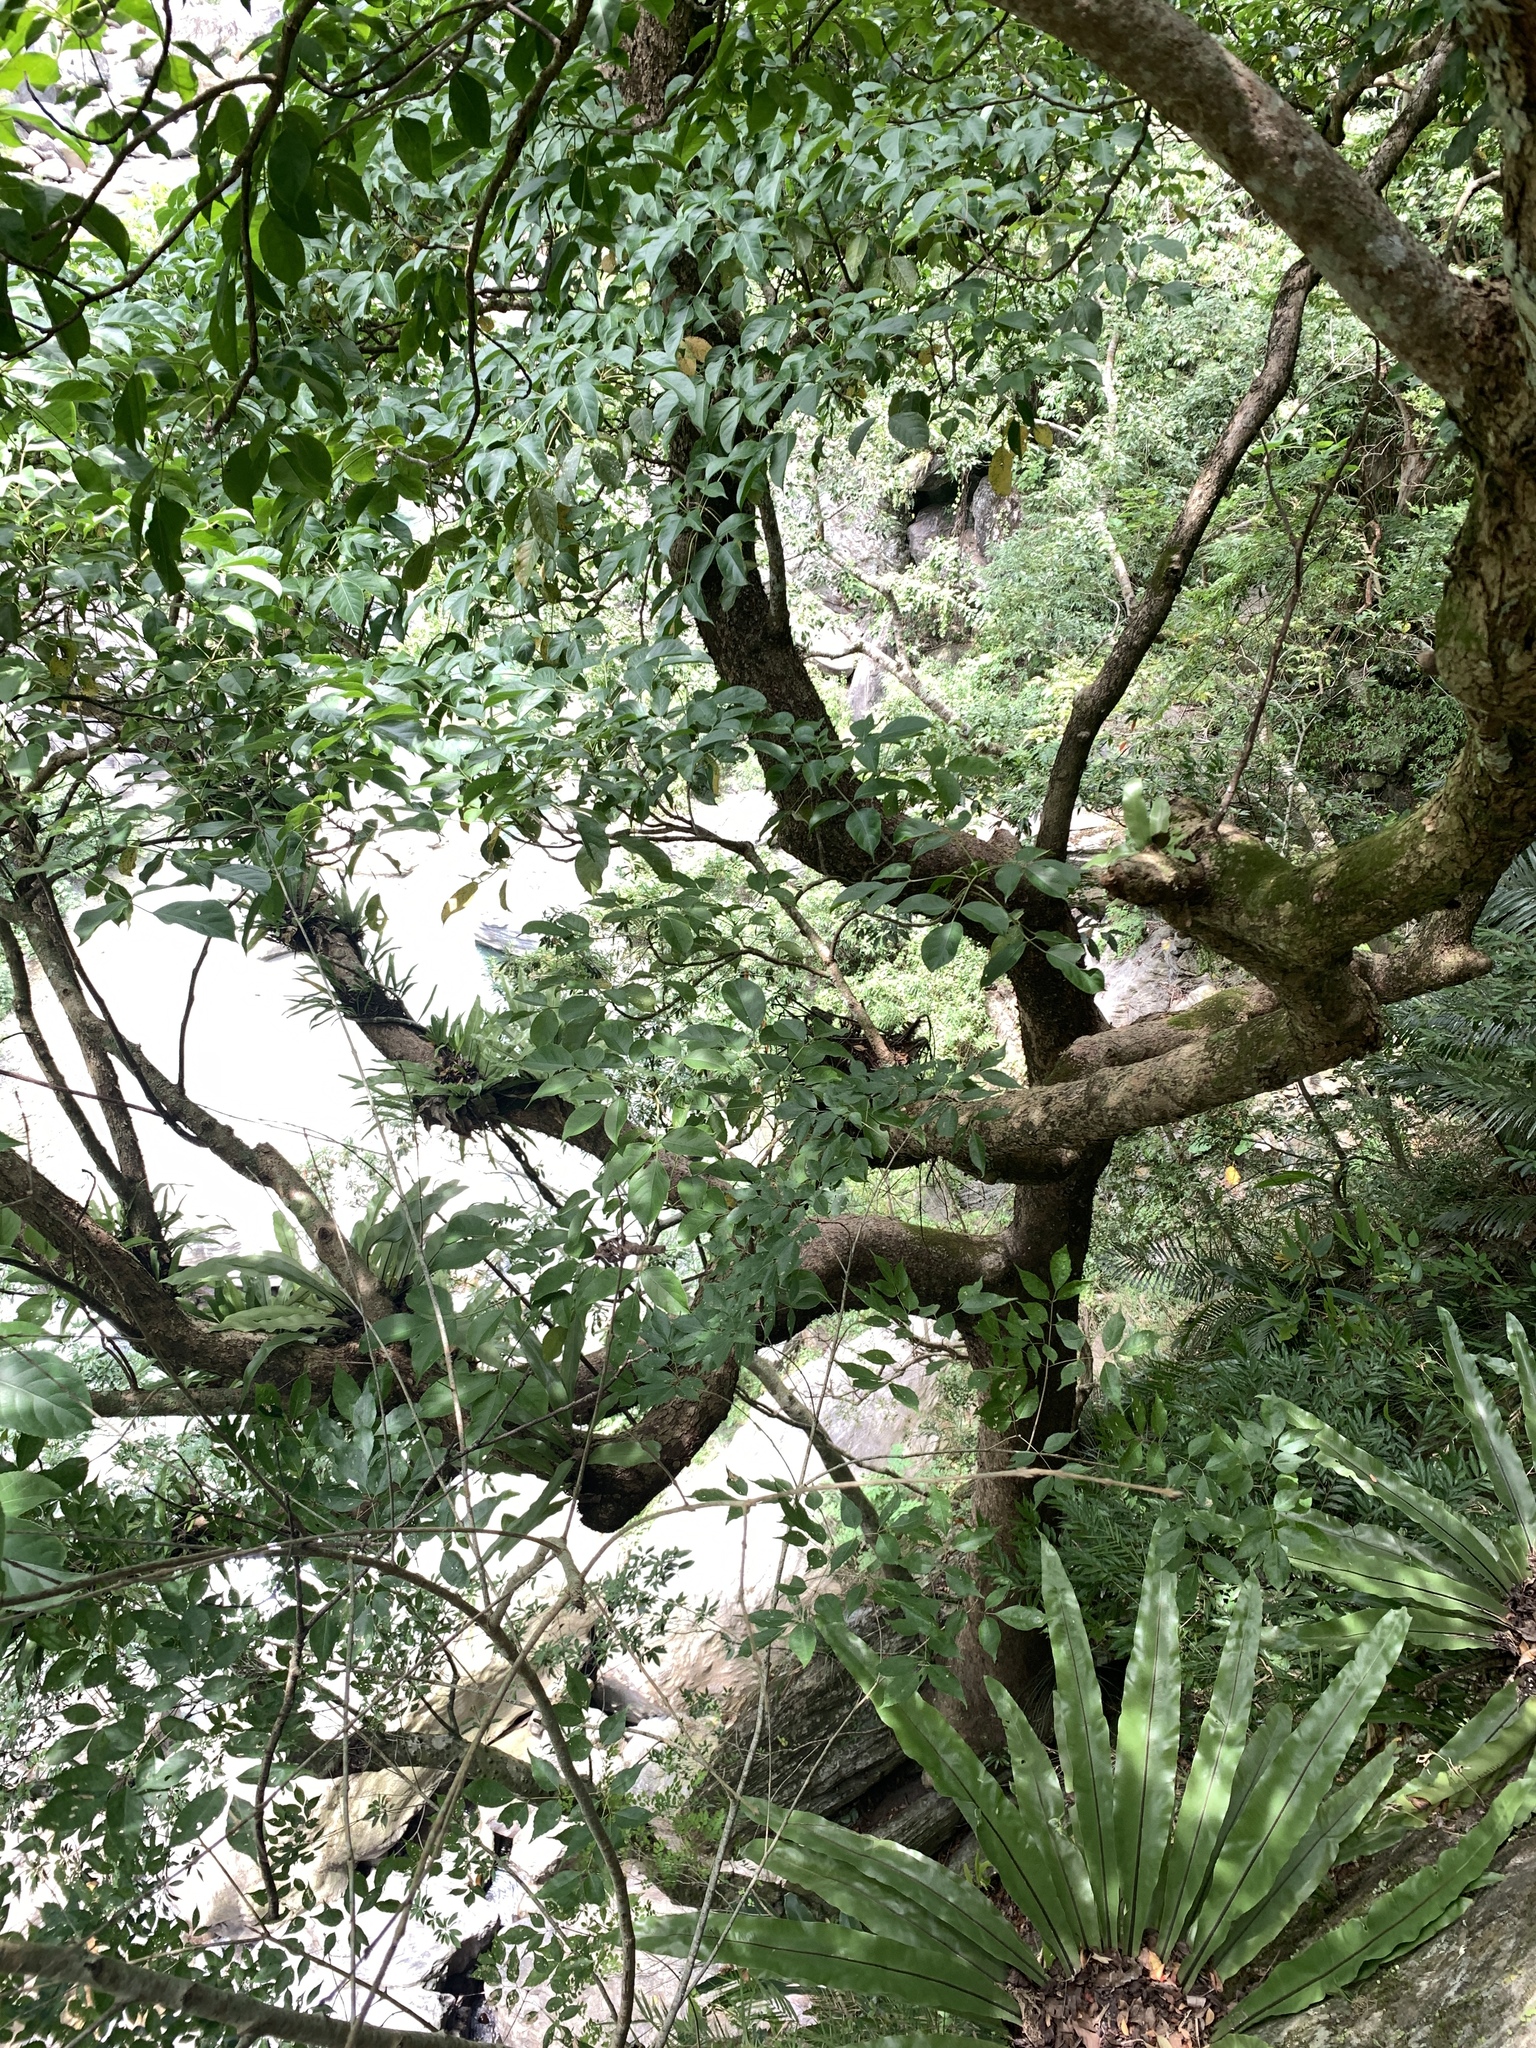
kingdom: Plantae
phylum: Tracheophyta
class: Magnoliopsida
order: Malpighiales
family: Phyllanthaceae
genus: Bischofia
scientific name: Bischofia javanica
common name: Javanese bishopwood
